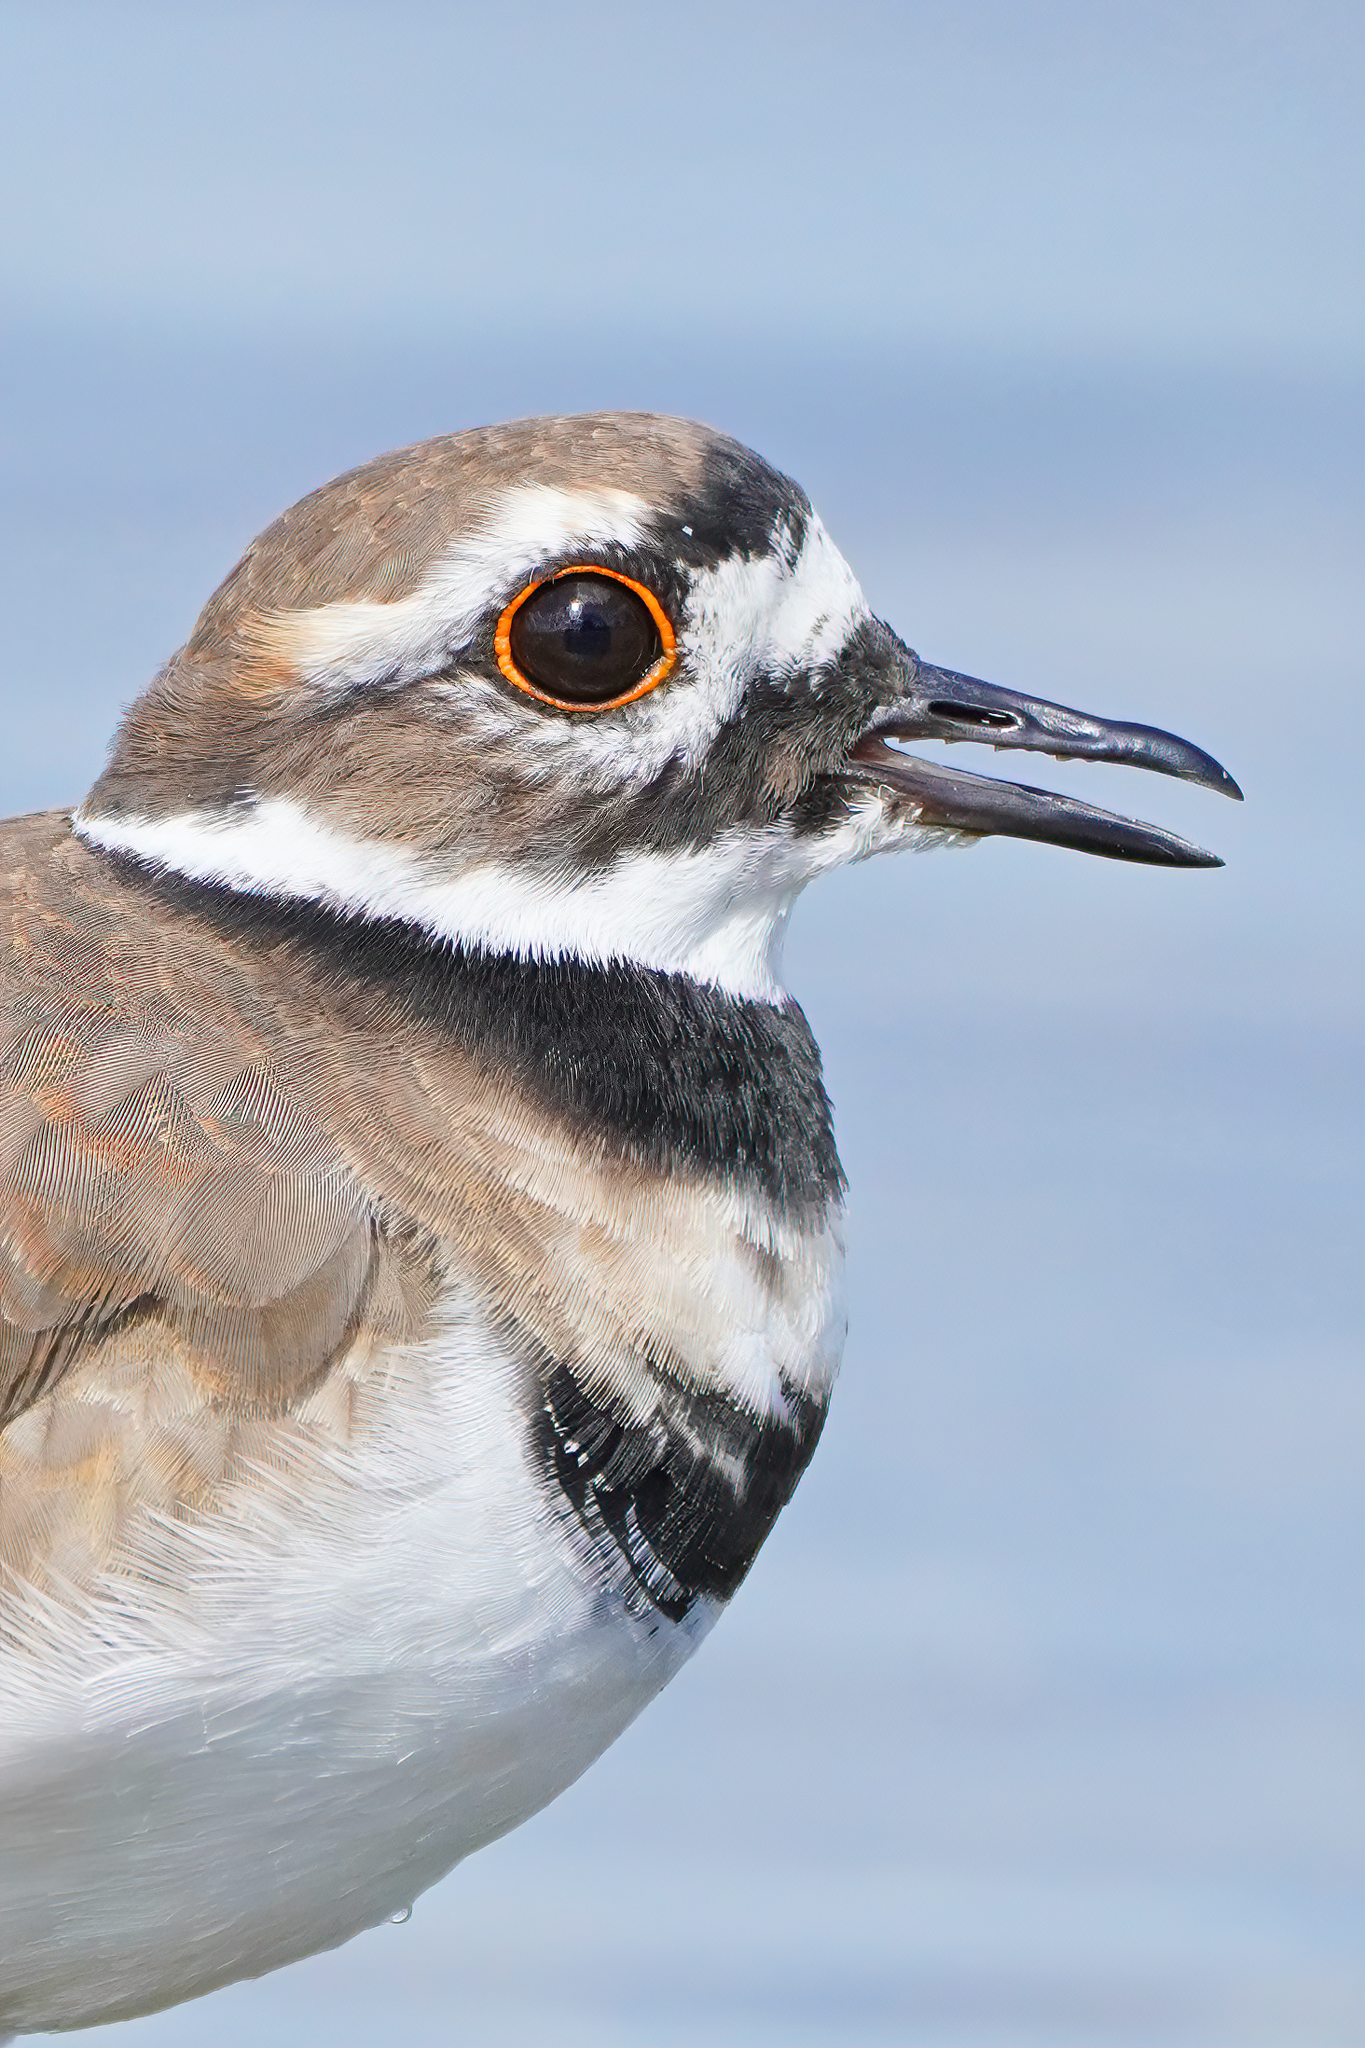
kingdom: Animalia
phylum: Chordata
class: Aves
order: Charadriiformes
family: Charadriidae
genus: Charadrius
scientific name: Charadrius vociferus
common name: Killdeer
